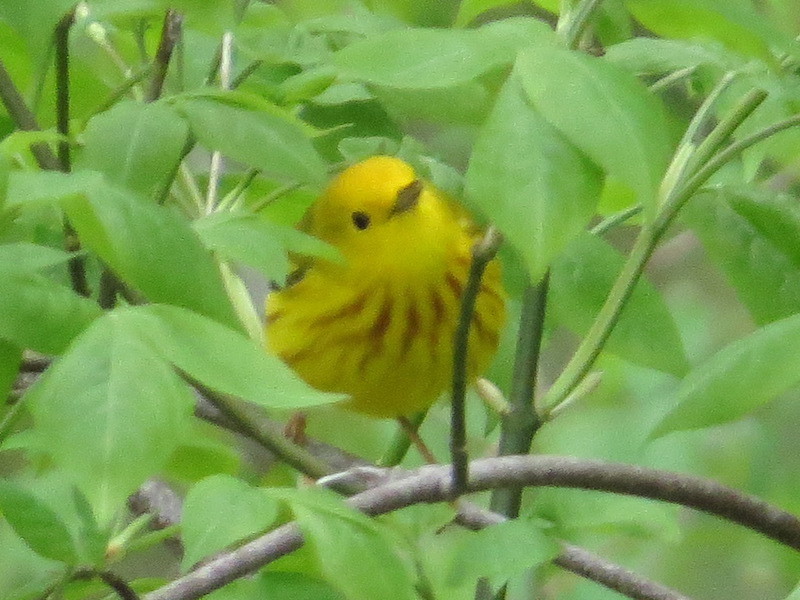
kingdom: Animalia
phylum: Chordata
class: Aves
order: Passeriformes
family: Parulidae
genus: Setophaga
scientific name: Setophaga petechia
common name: Yellow warbler
